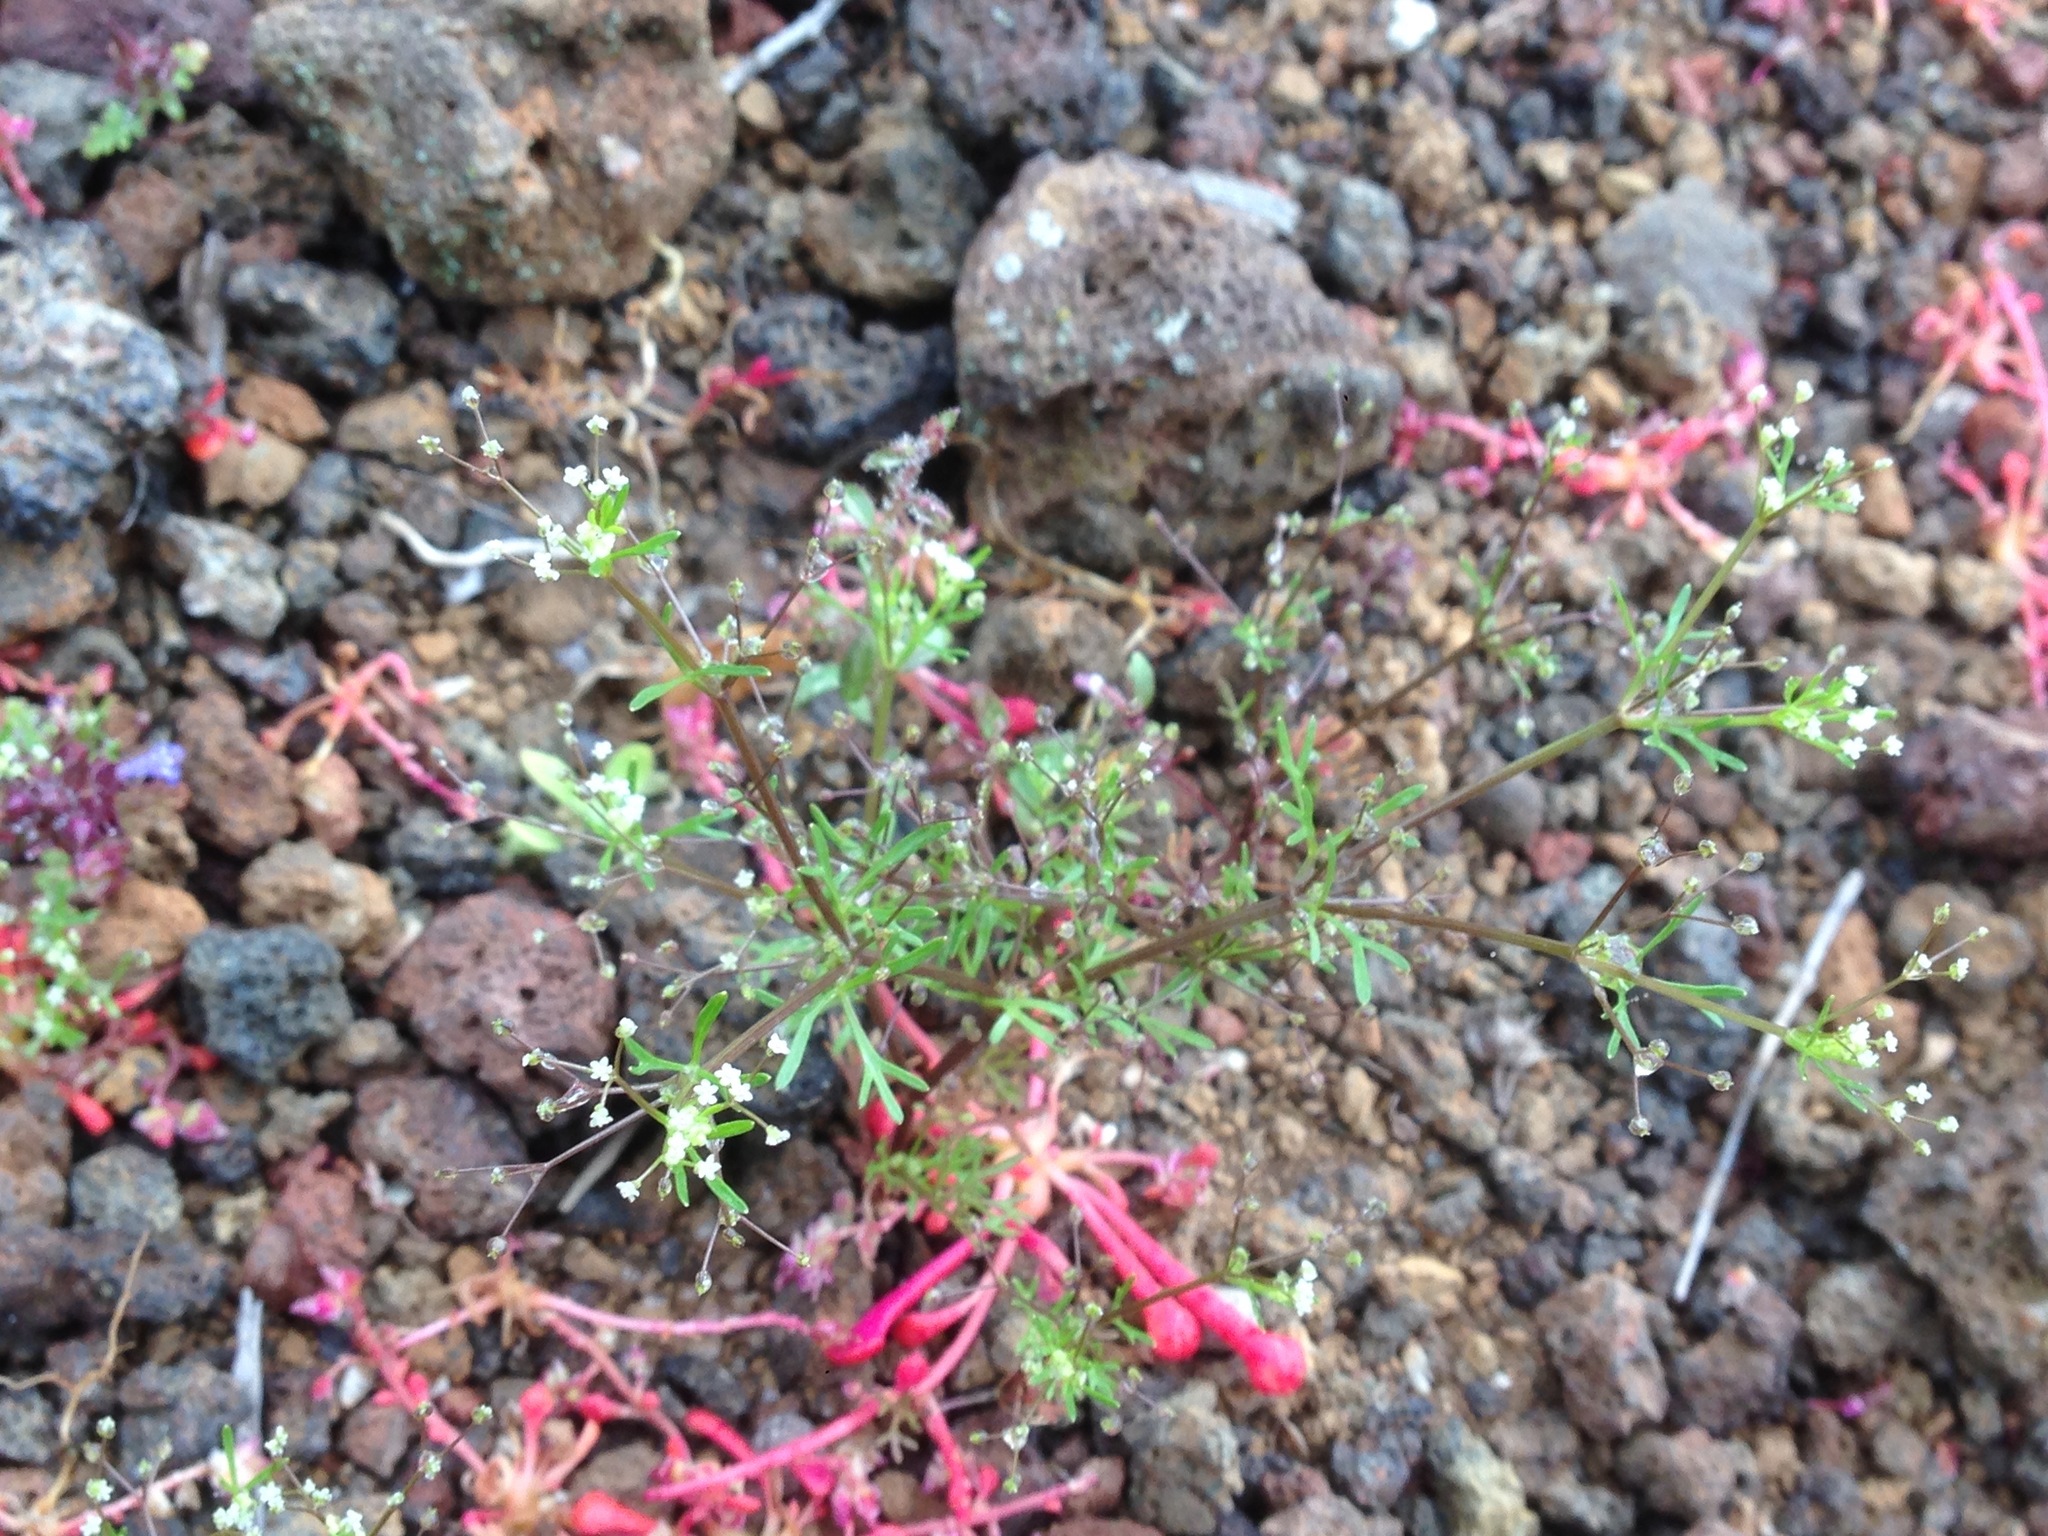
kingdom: Plantae
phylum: Tracheophyta
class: Magnoliopsida
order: Apiales
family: Apiaceae
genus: Apiastrum
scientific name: Apiastrum angustifolium
